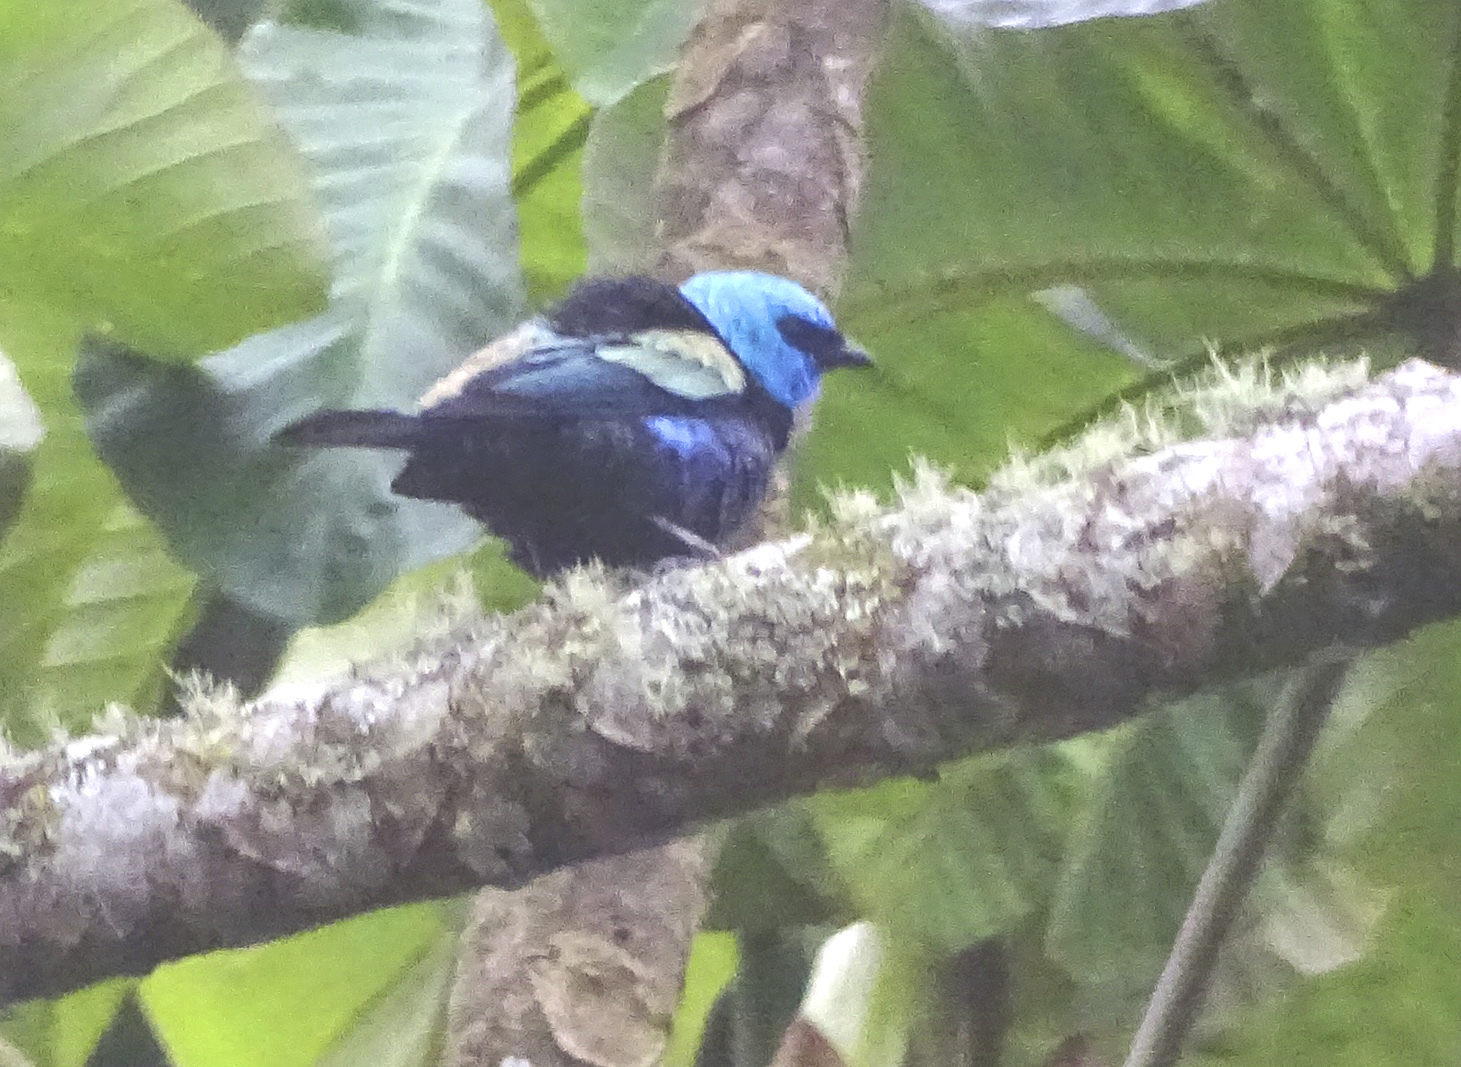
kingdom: Animalia
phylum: Chordata
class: Aves
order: Passeriformes
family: Thraupidae
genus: Stilpnia
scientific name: Stilpnia cyanicollis
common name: Blue-necked tanager
